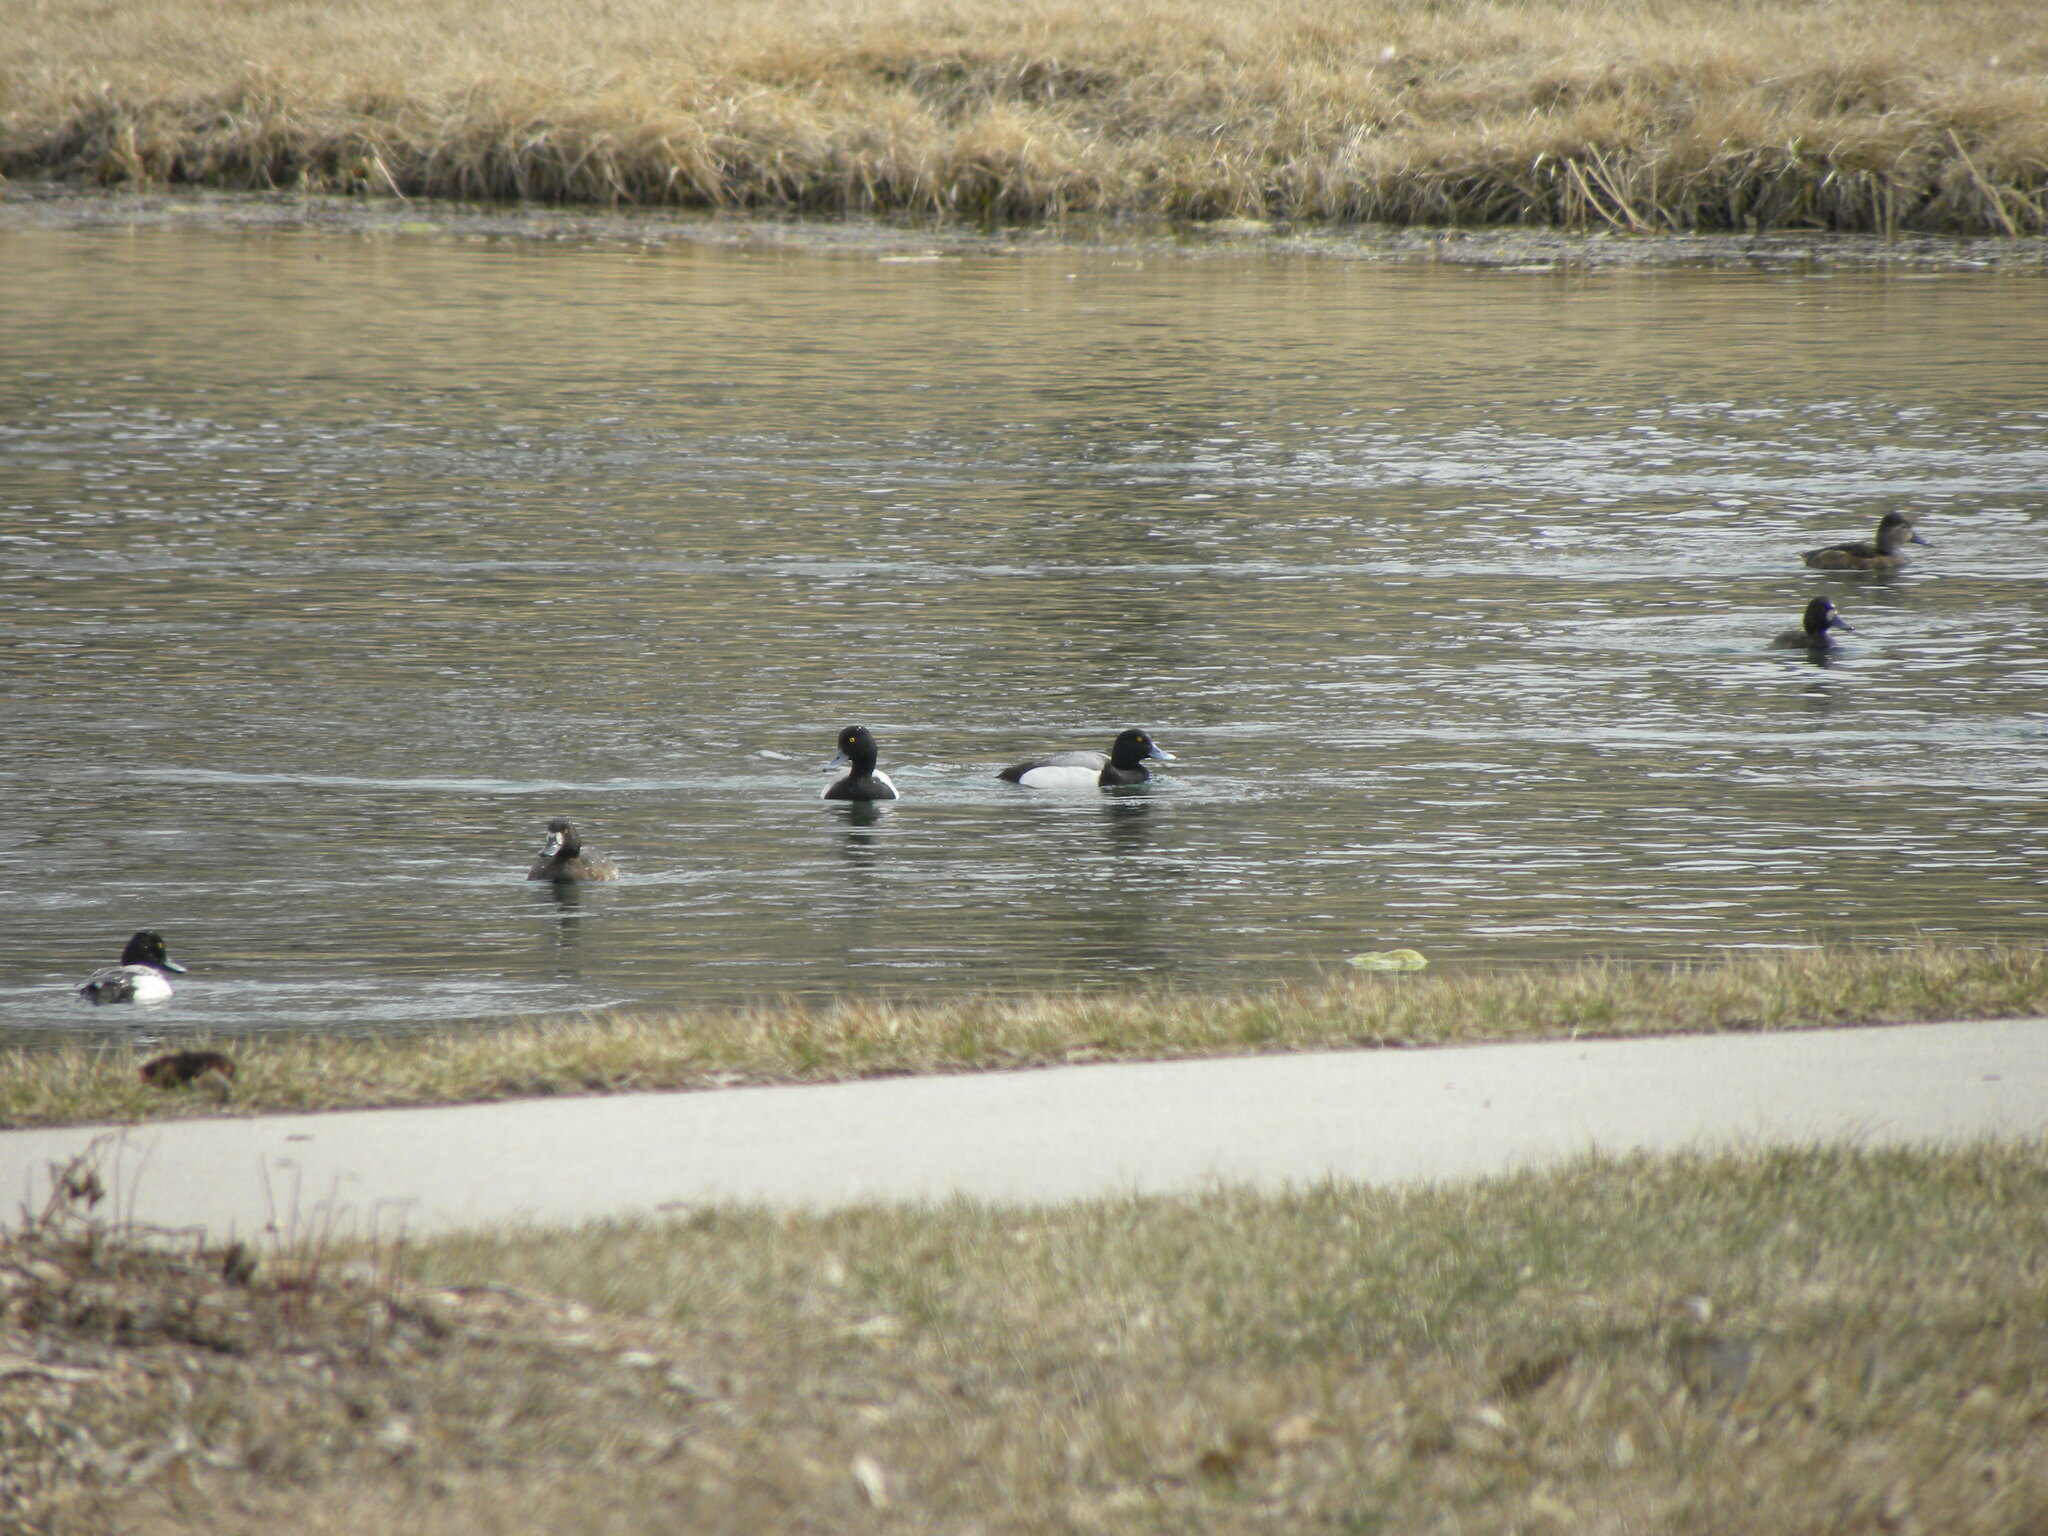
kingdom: Animalia
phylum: Chordata
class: Aves
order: Anseriformes
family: Anatidae
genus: Aythya
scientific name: Aythya marila
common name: Greater scaup
